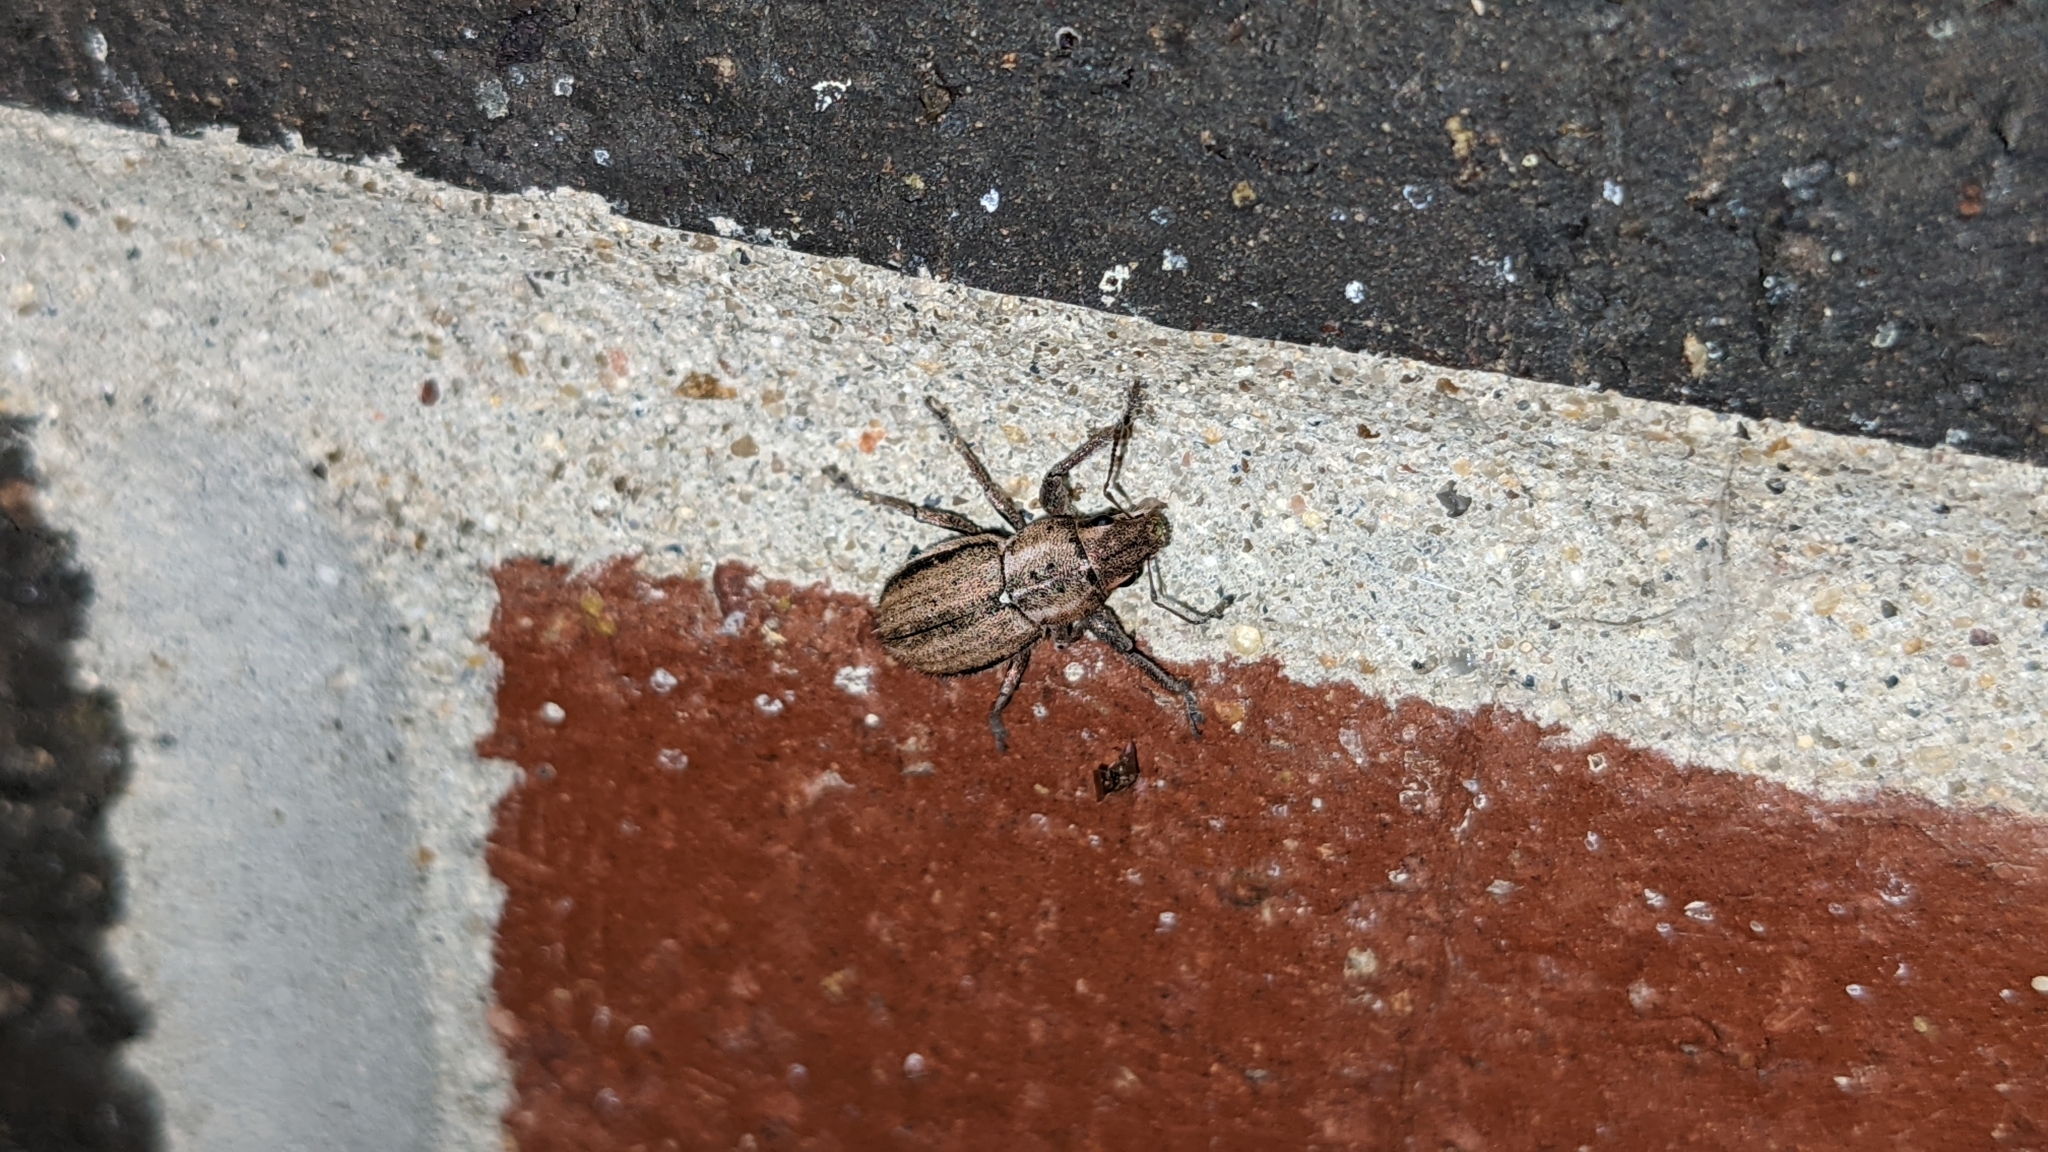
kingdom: Animalia
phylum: Arthropoda
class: Insecta
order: Coleoptera
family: Curculionidae
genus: Naupactus
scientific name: Naupactus peregrinus
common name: Whitefringed beetle
